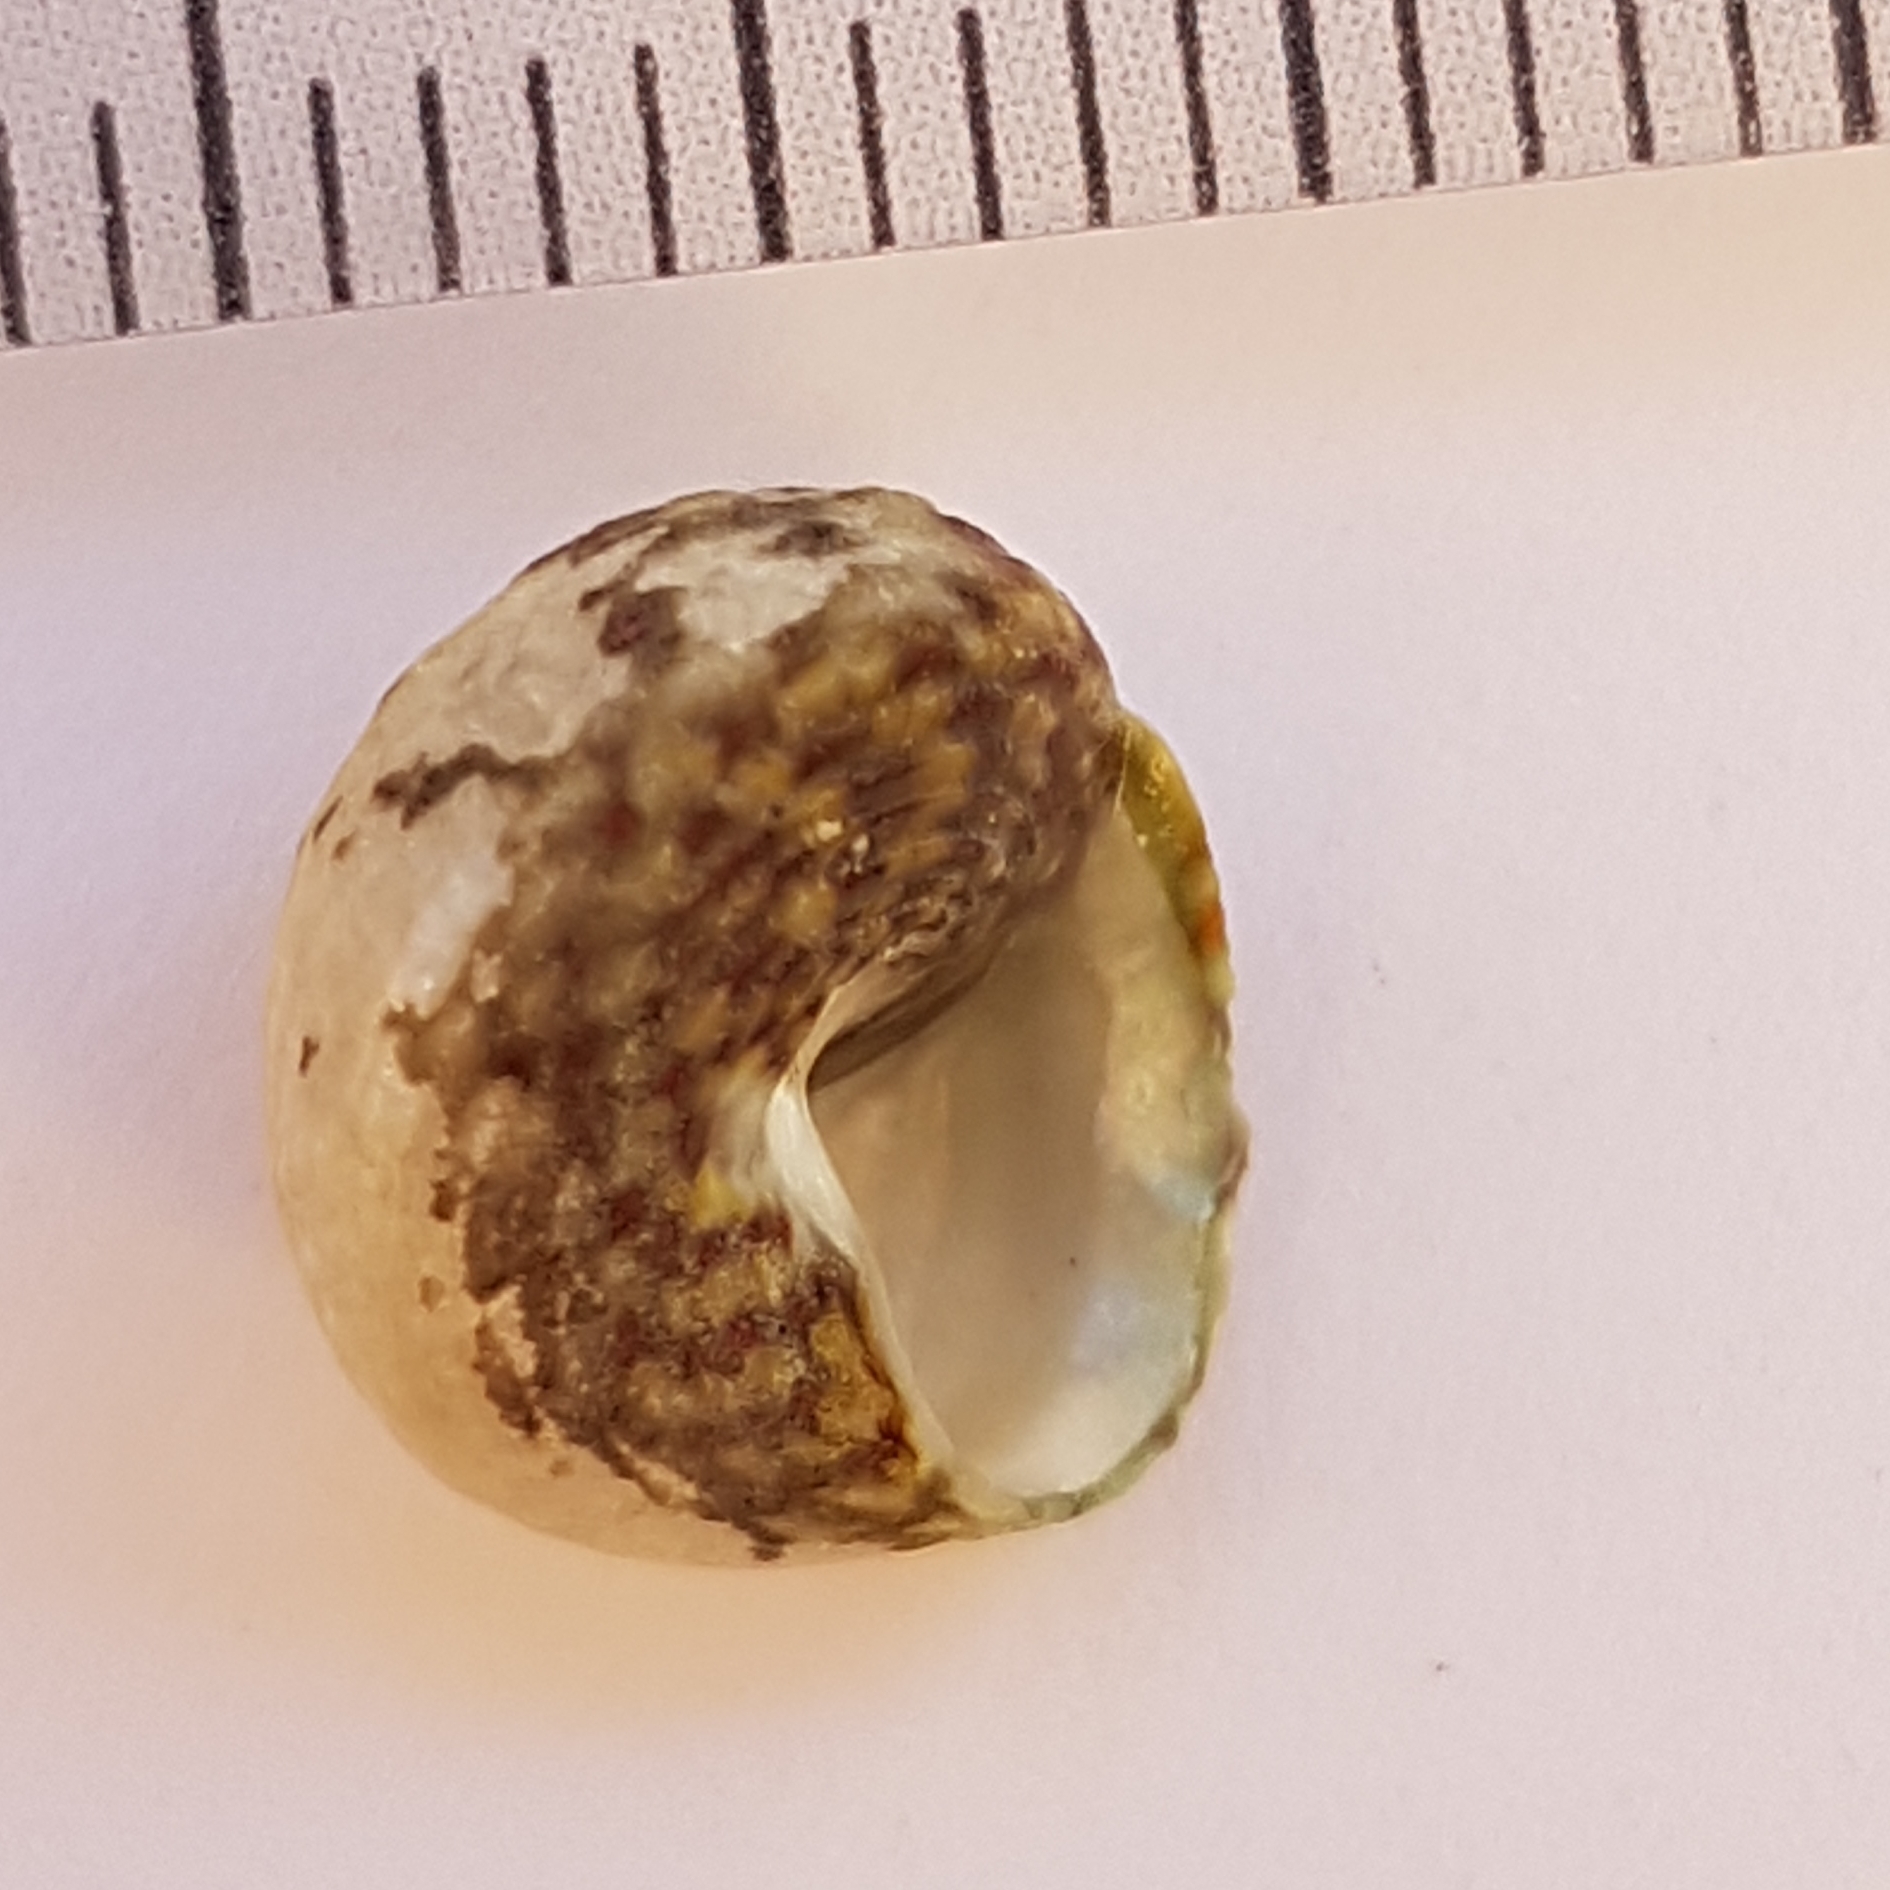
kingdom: Animalia
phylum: Mollusca
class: Gastropoda
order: Trochida
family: Trochidae
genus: Steromphala
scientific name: Steromphala pennanti
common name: Pennant's top shell
